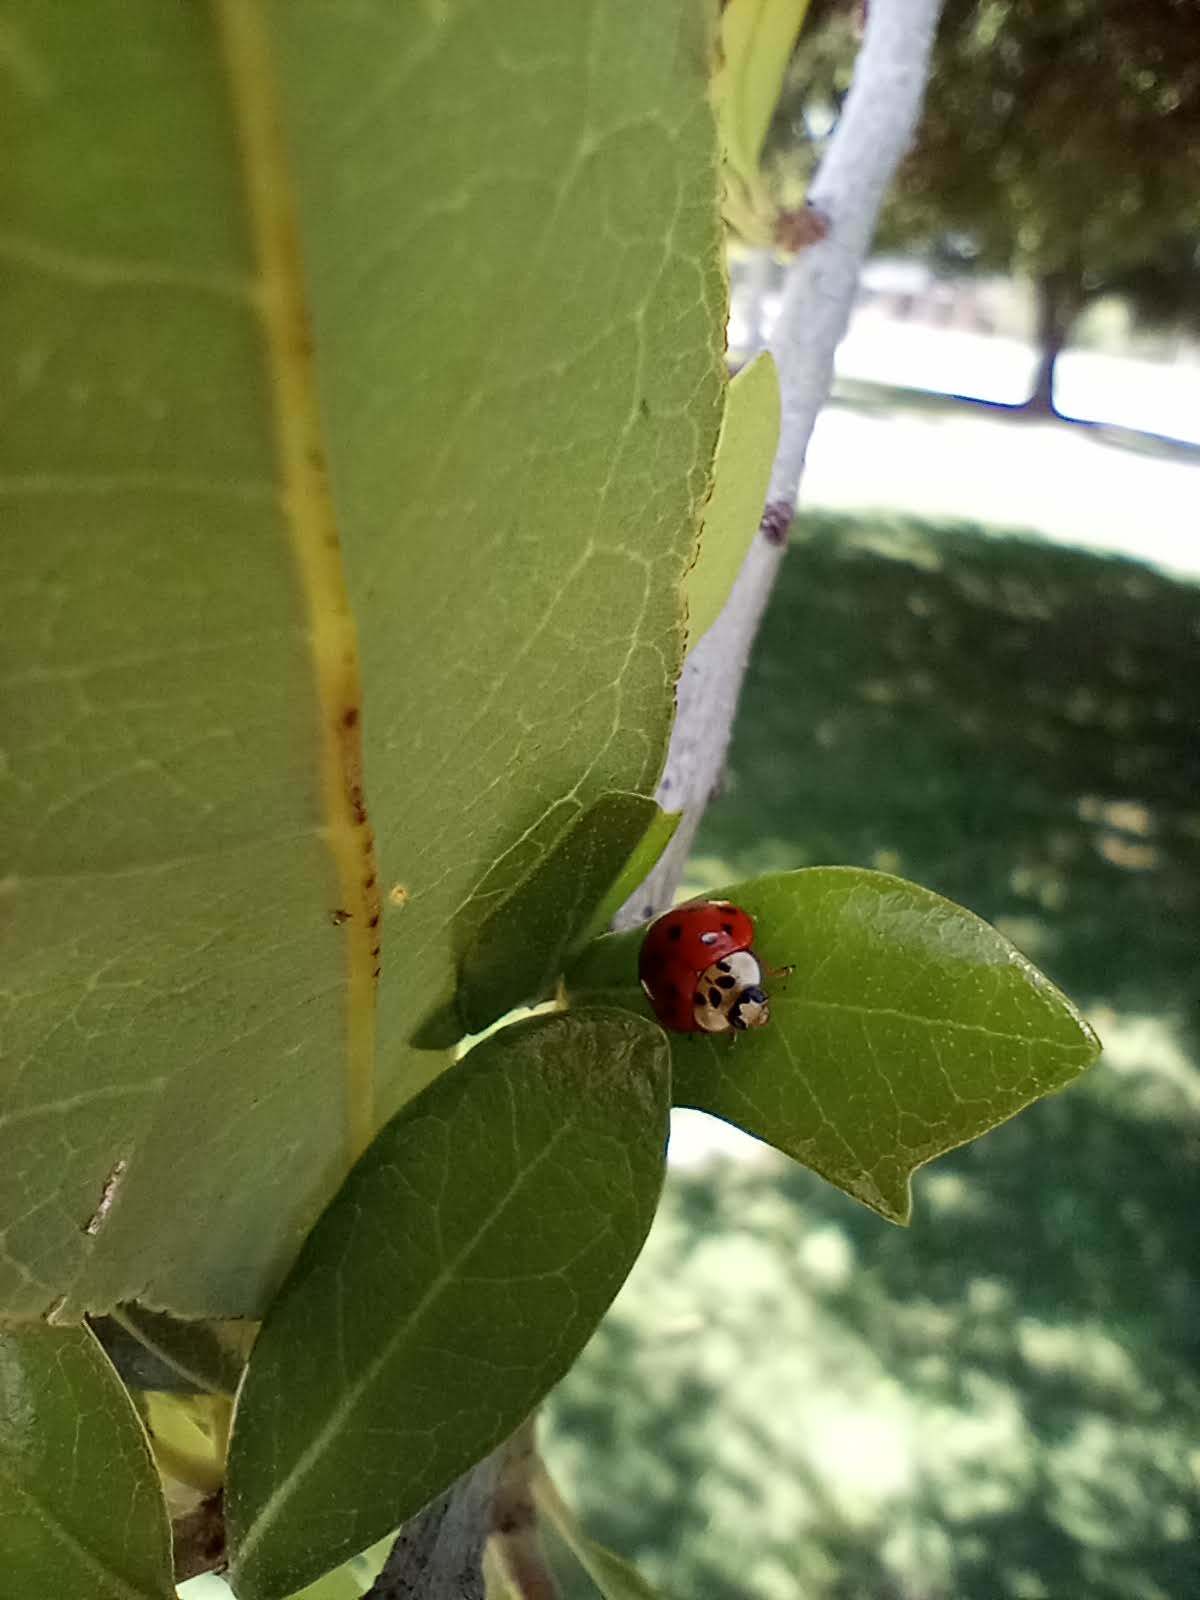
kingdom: Animalia
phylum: Arthropoda
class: Insecta
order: Coleoptera
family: Coccinellidae
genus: Harmonia
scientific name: Harmonia axyridis
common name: Harlequin ladybird
